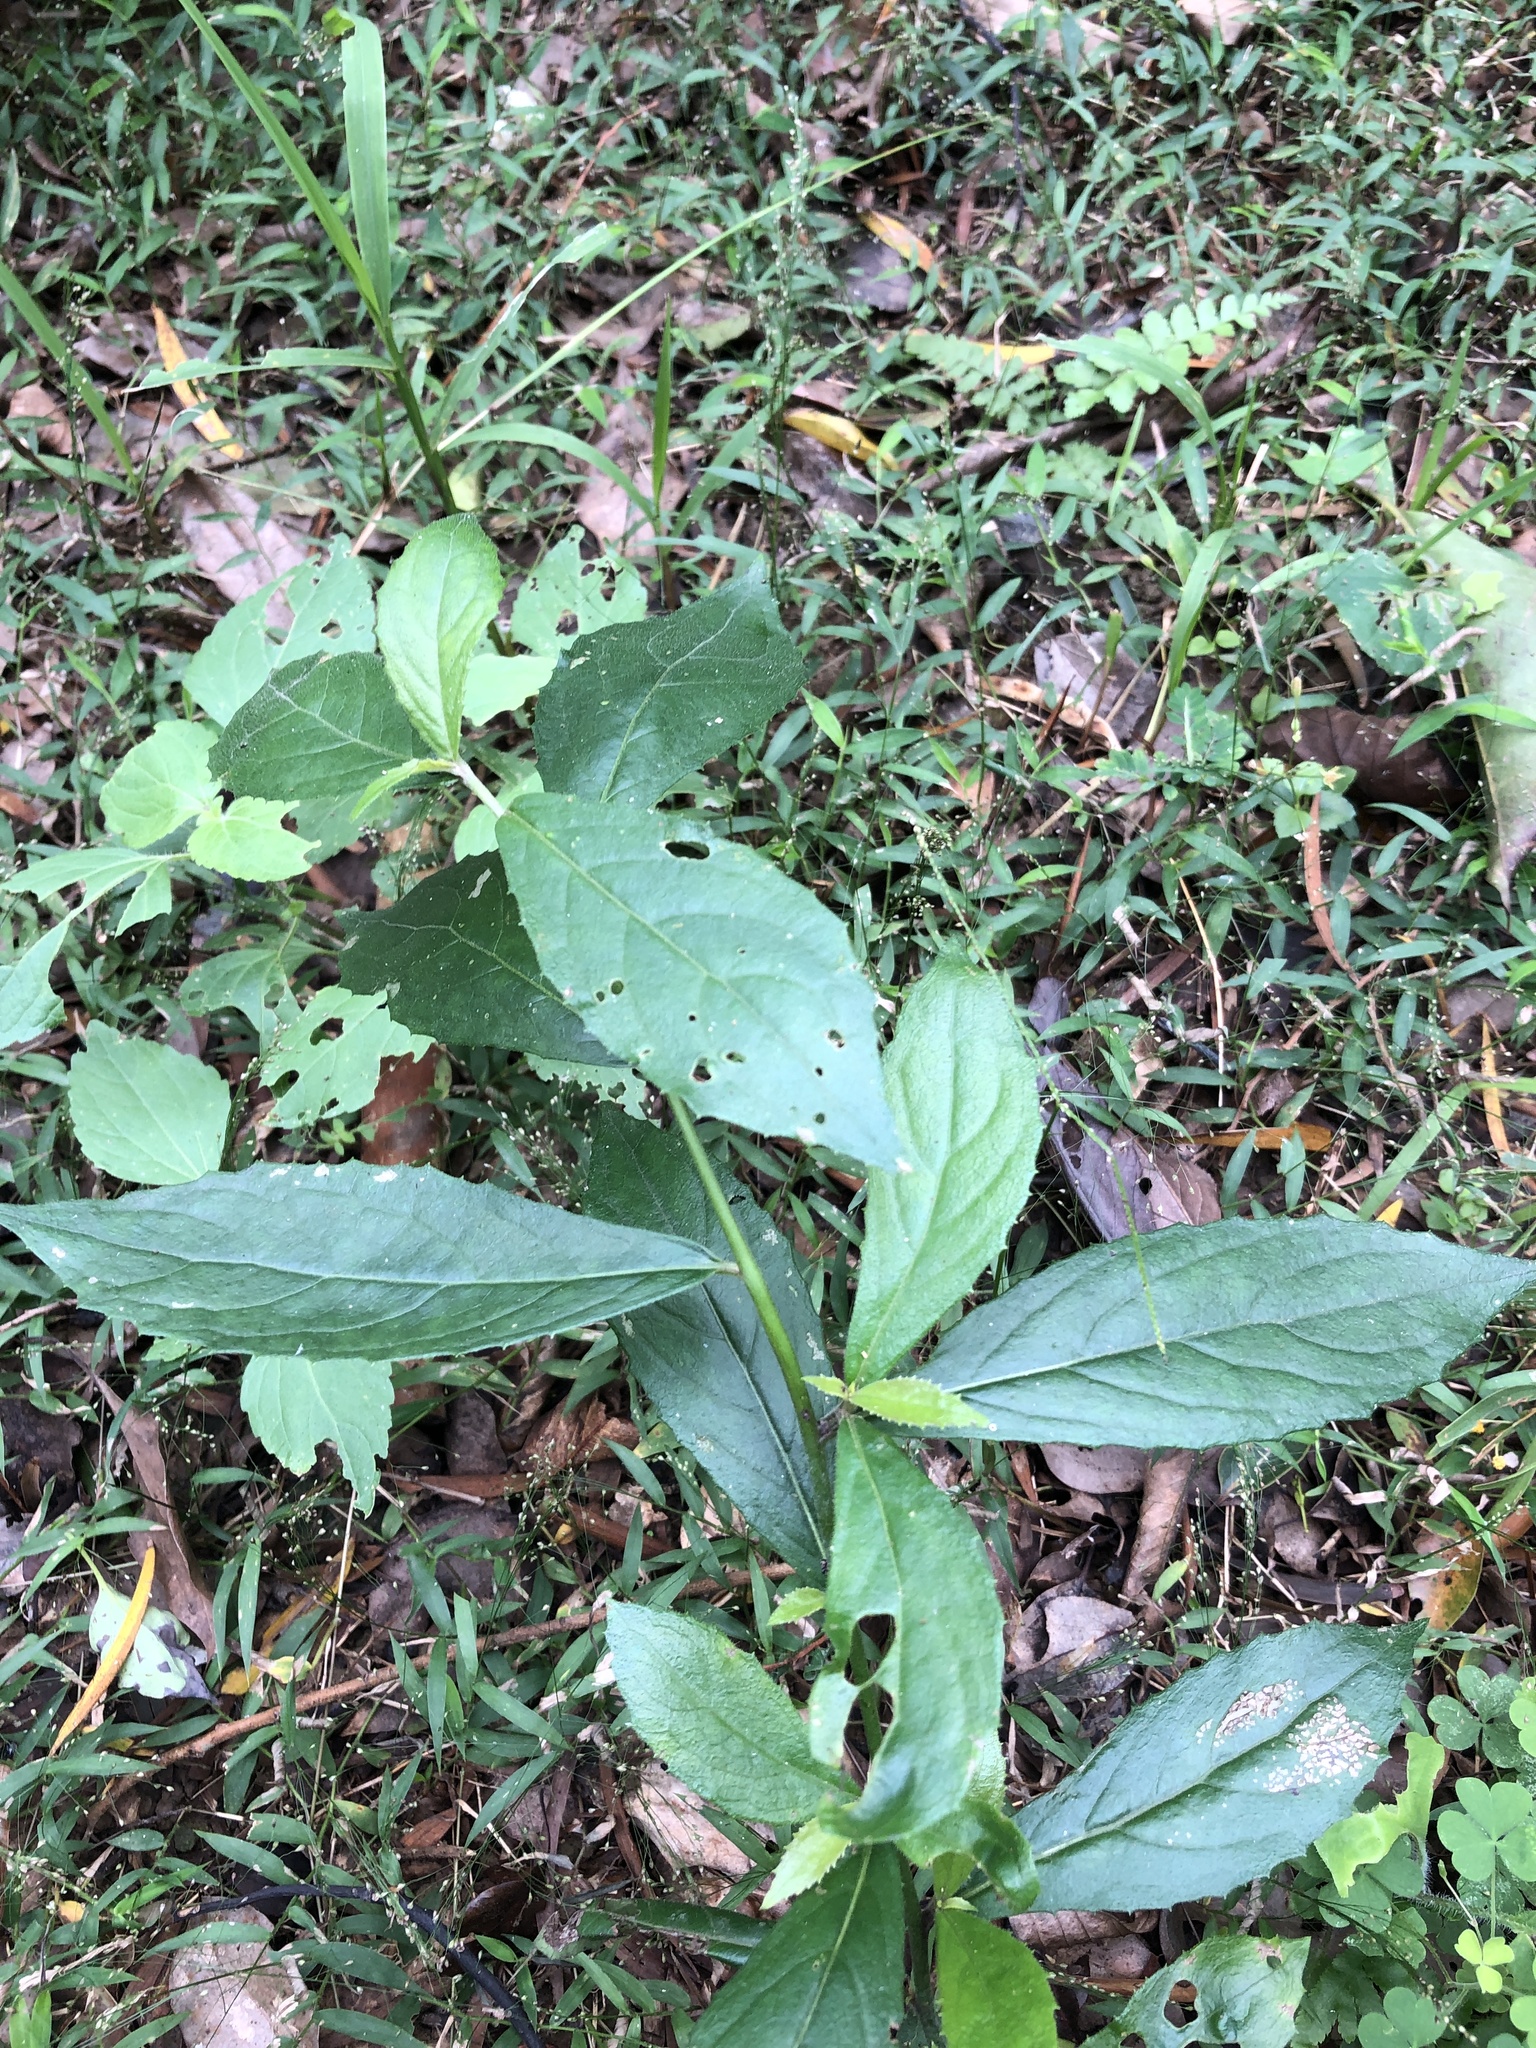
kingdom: Plantae
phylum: Tracheophyta
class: Magnoliopsida
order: Asterales
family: Asteraceae
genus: Blumea
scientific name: Blumea megacephala
